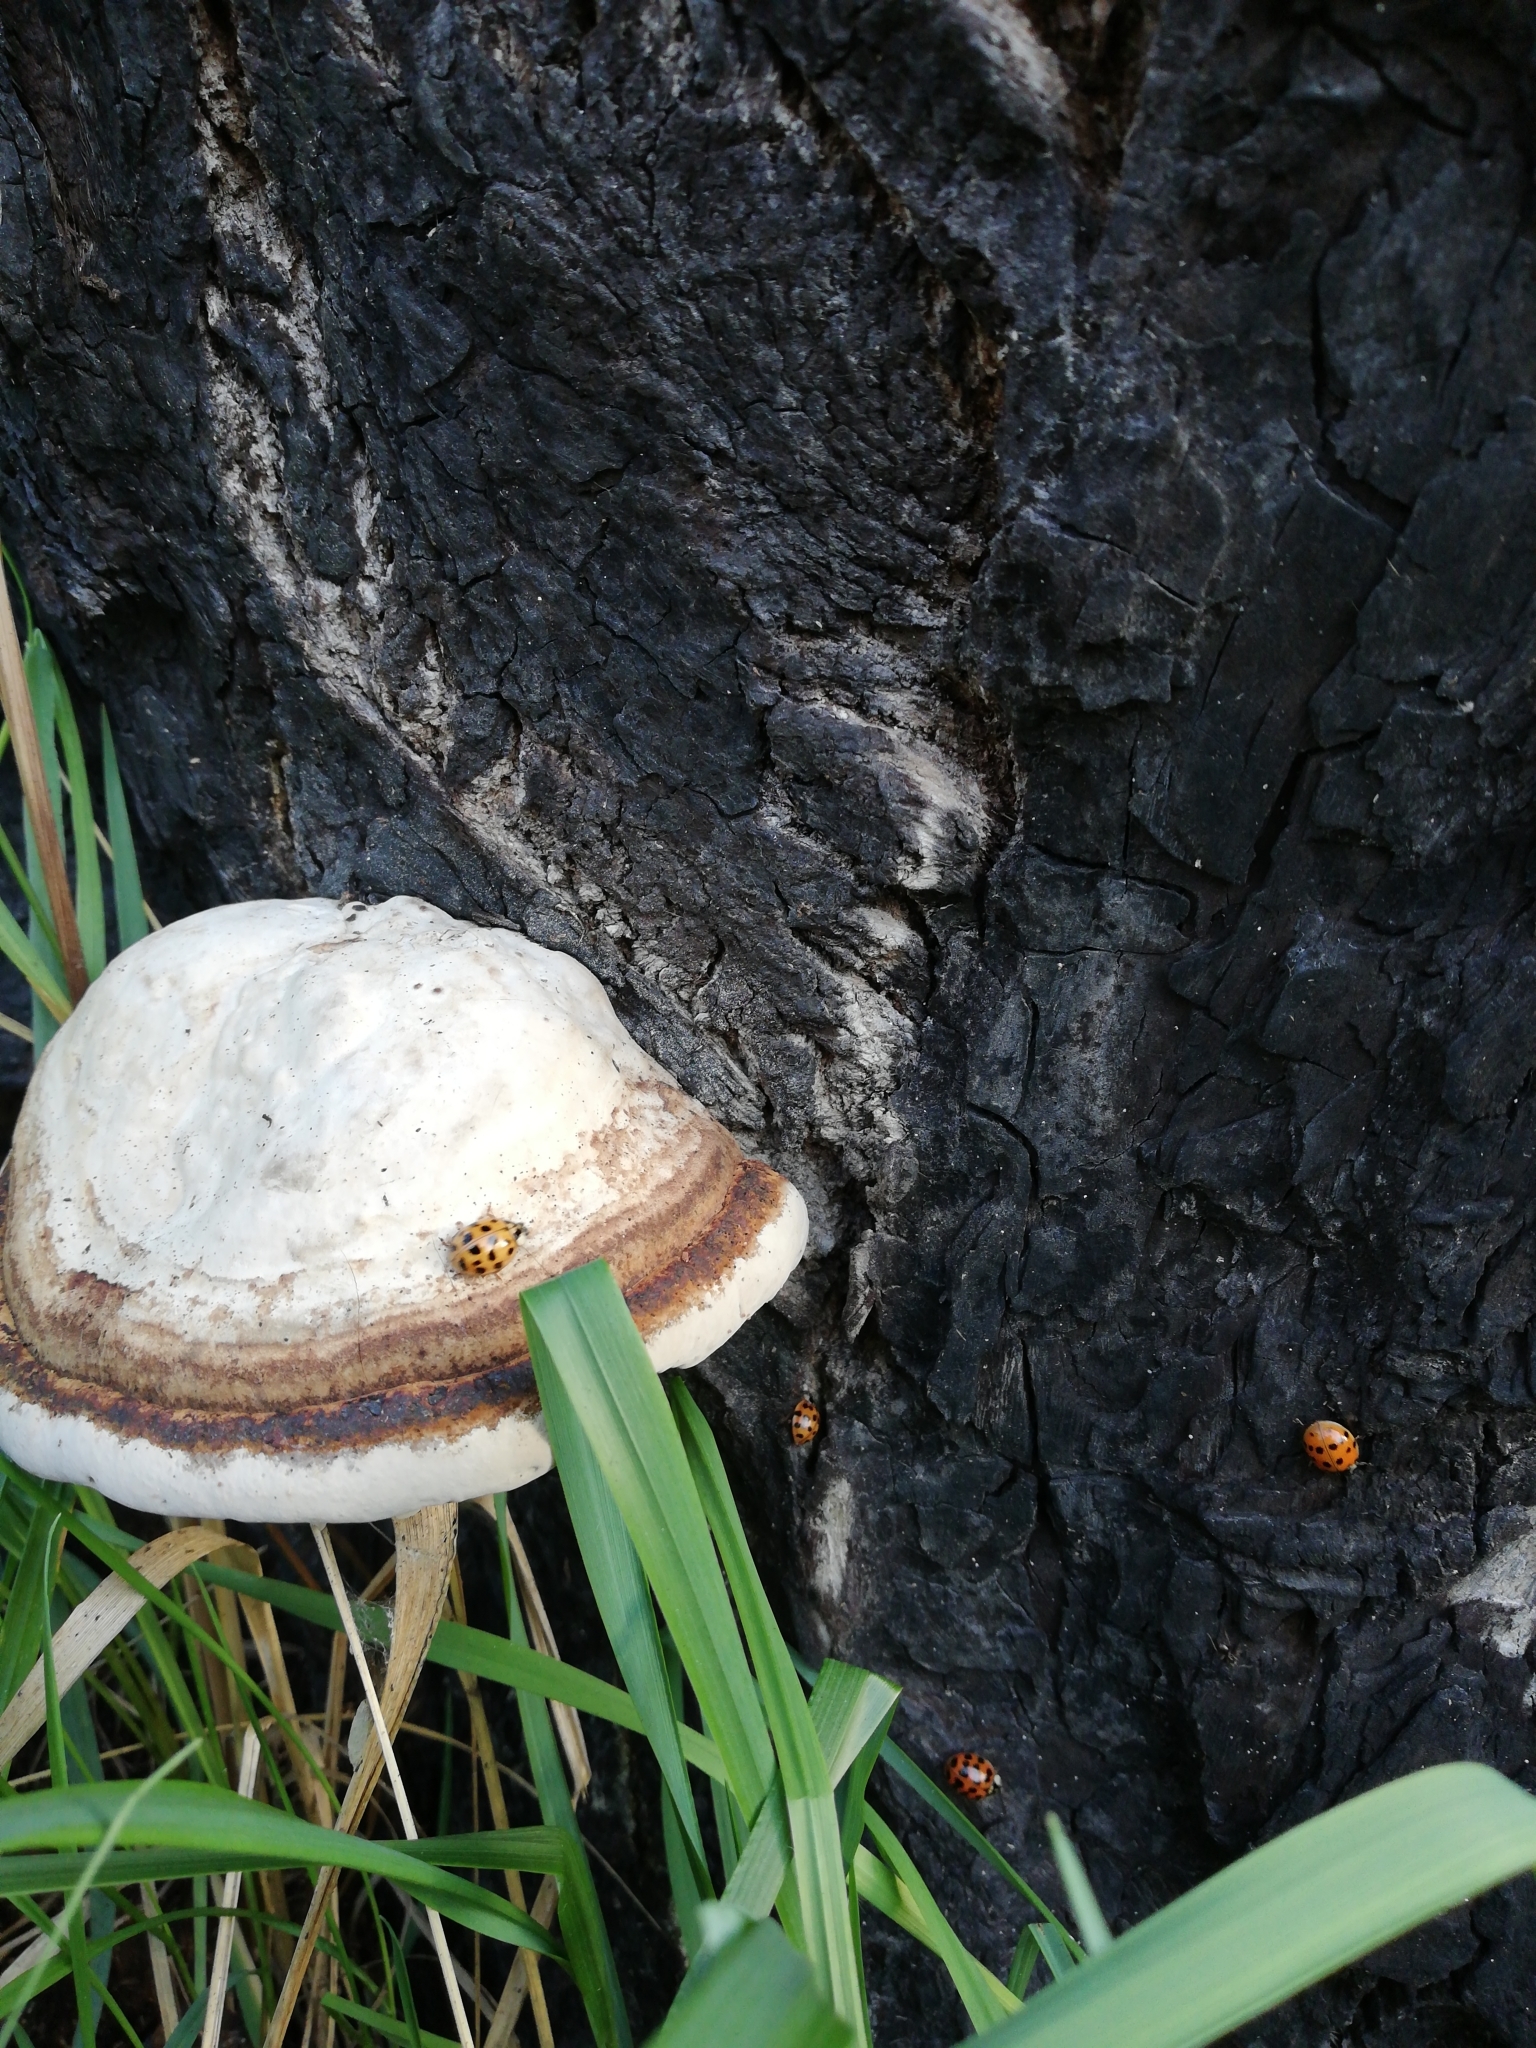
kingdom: Animalia
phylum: Arthropoda
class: Insecta
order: Coleoptera
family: Coccinellidae
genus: Harmonia
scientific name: Harmonia axyridis
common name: Harlequin ladybird
